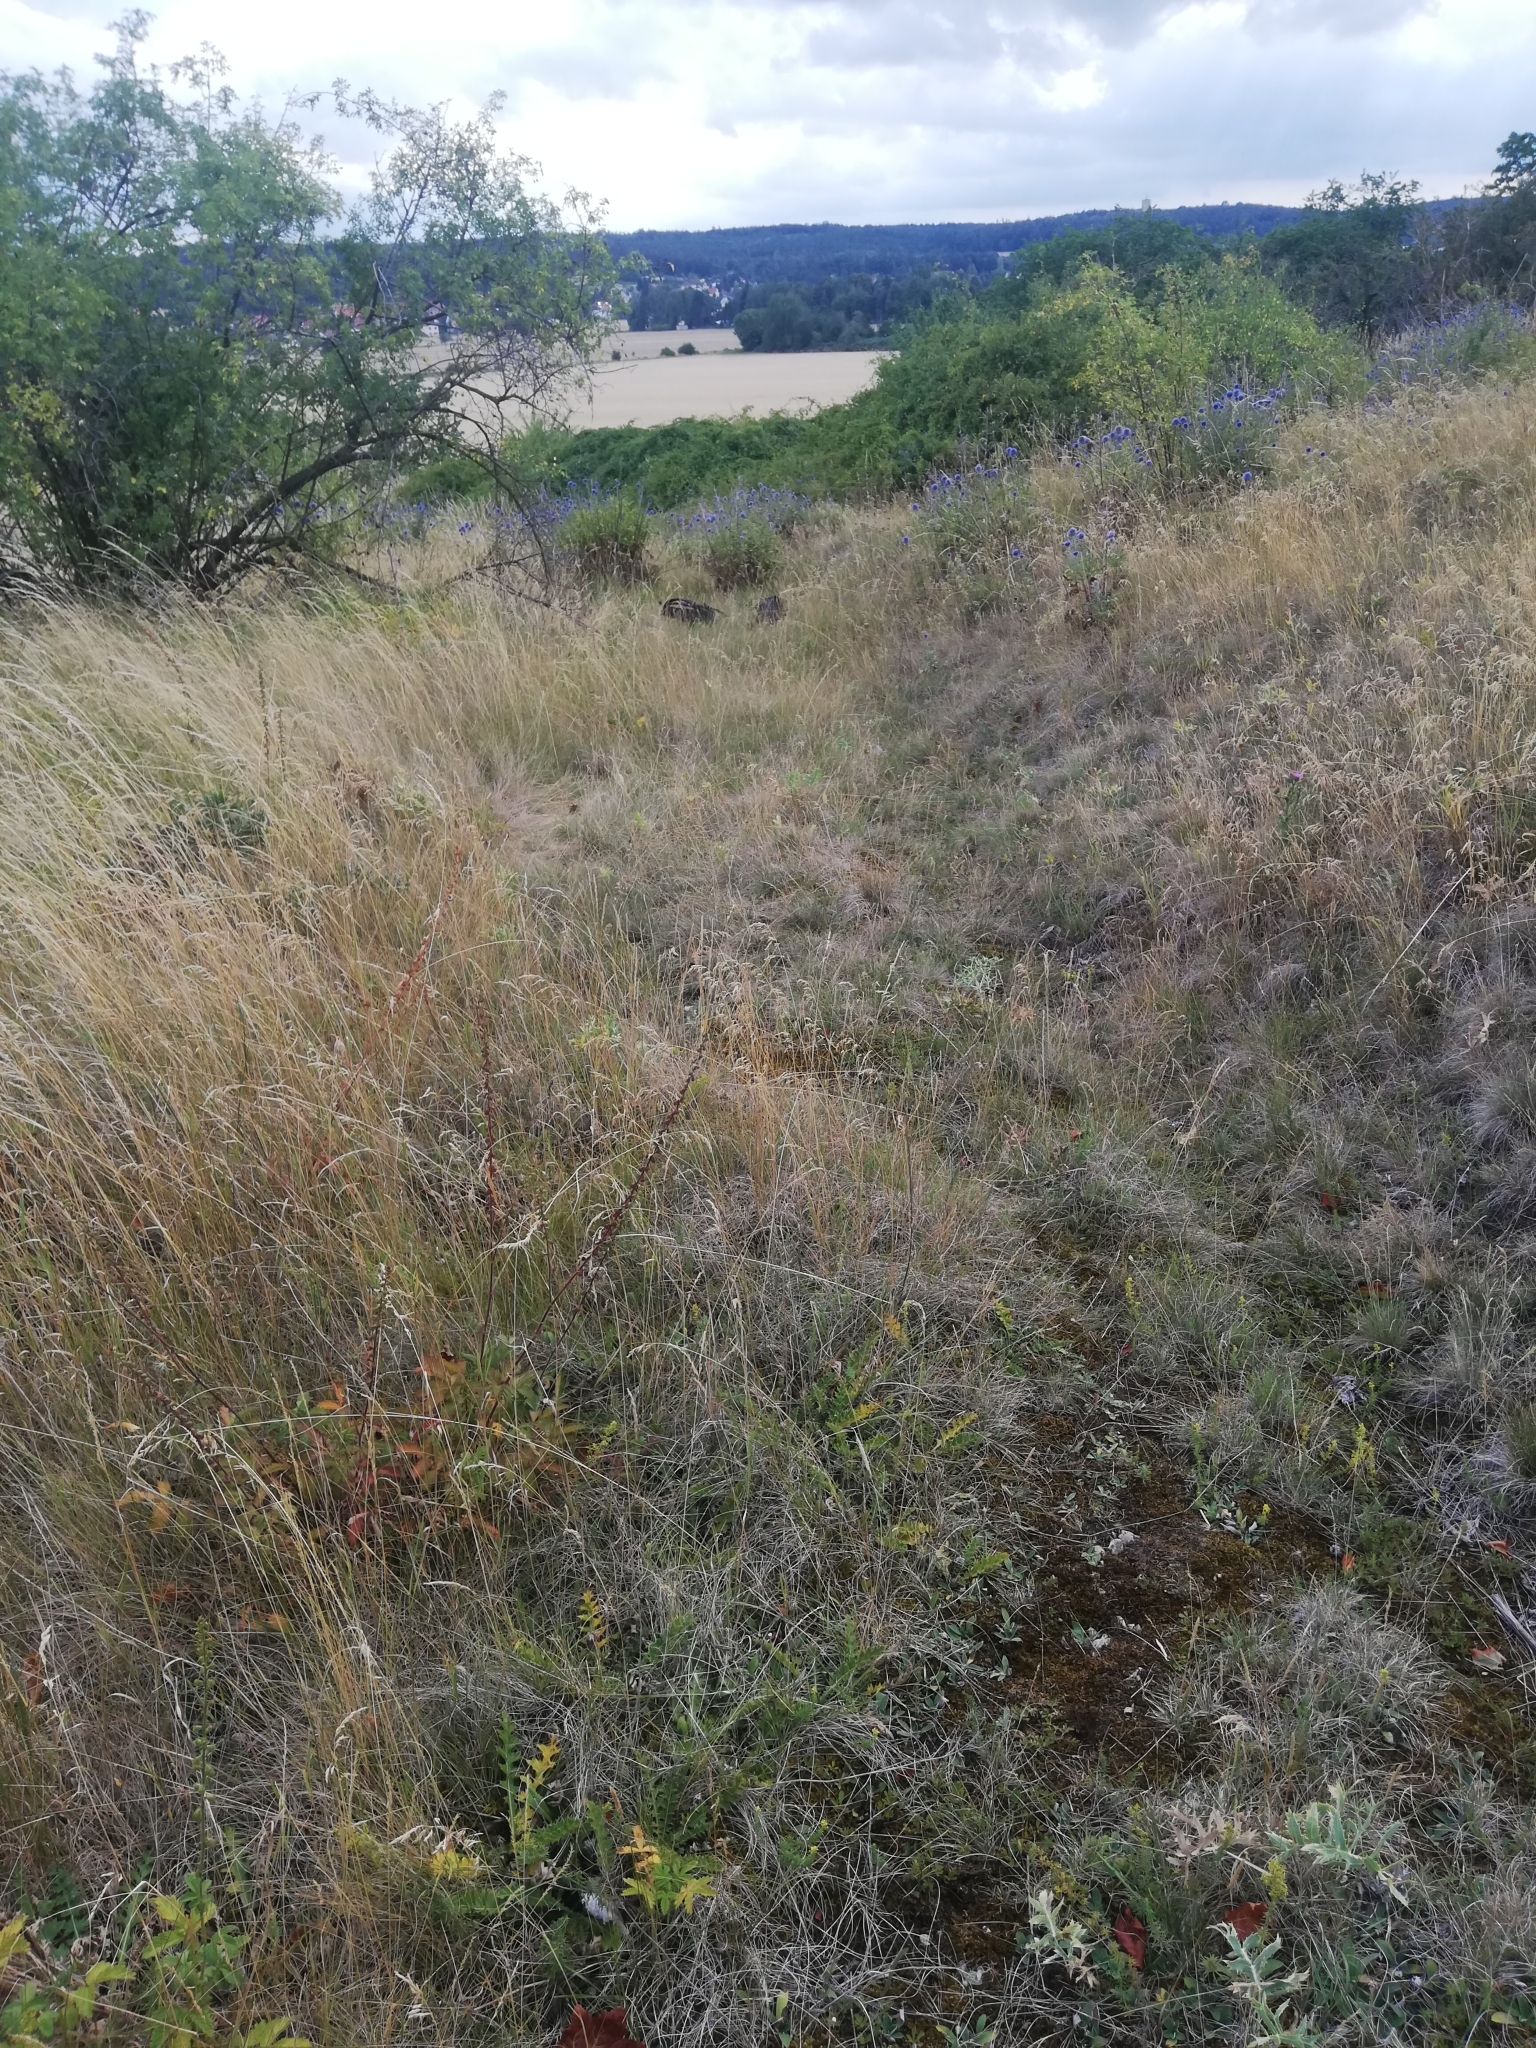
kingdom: Plantae
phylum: Tracheophyta
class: Magnoliopsida
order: Asterales
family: Asteraceae
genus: Cirsium
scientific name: Cirsium acaulon
